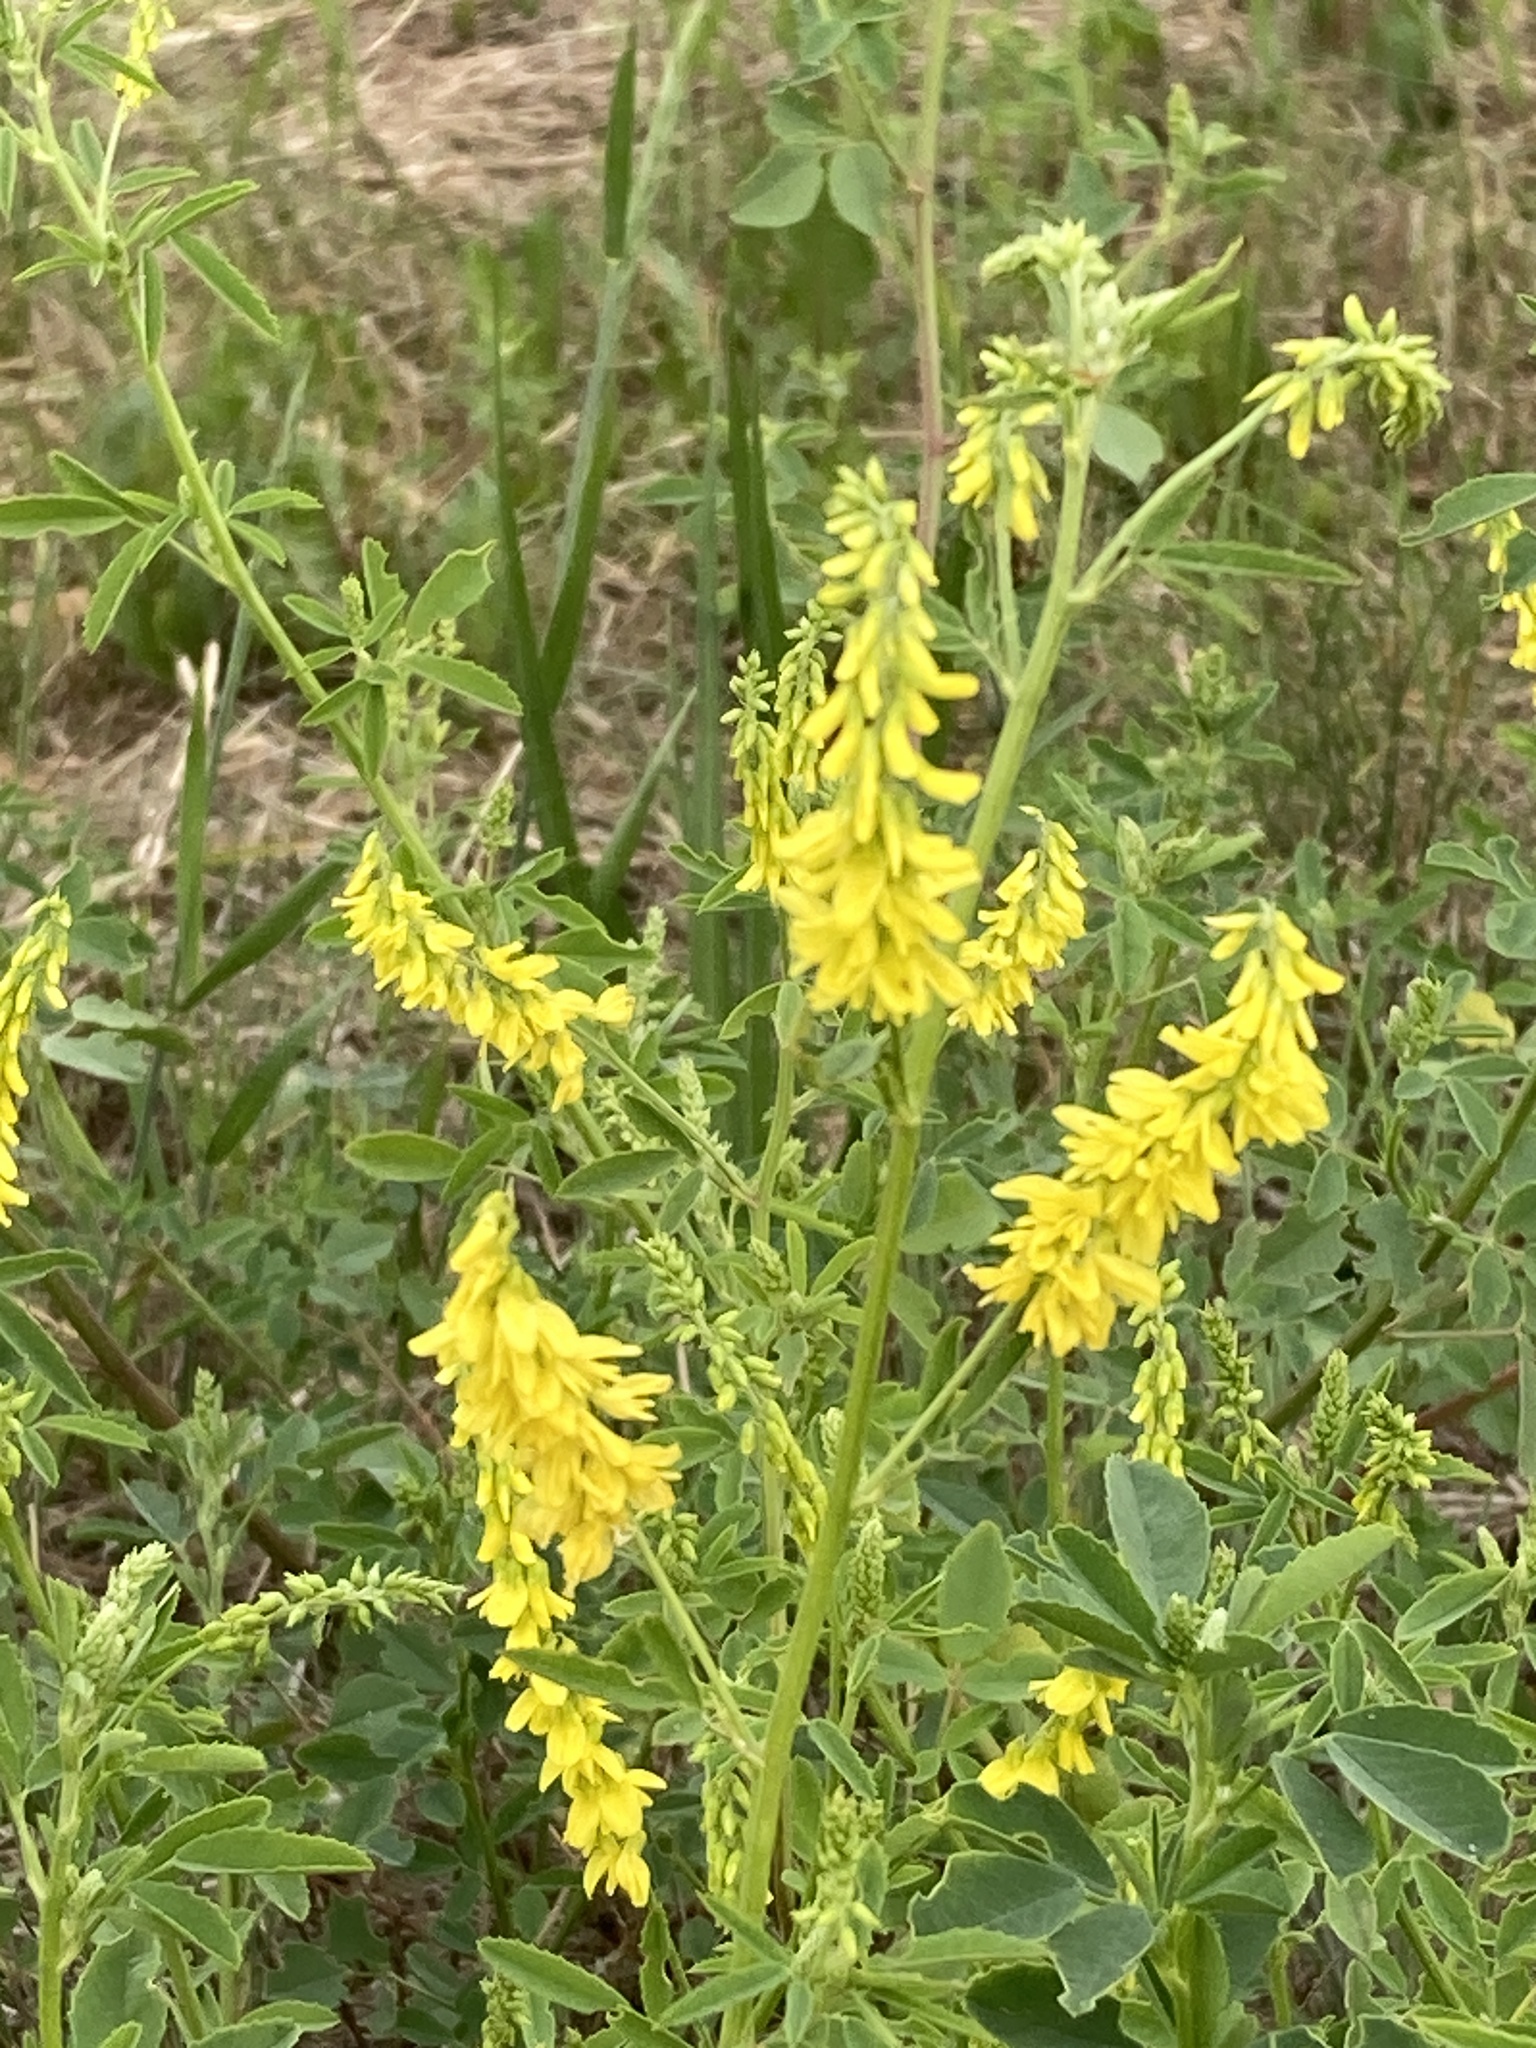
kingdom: Plantae
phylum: Tracheophyta
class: Magnoliopsida
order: Fabales
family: Fabaceae
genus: Melilotus
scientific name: Melilotus officinalis
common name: Sweetclover
